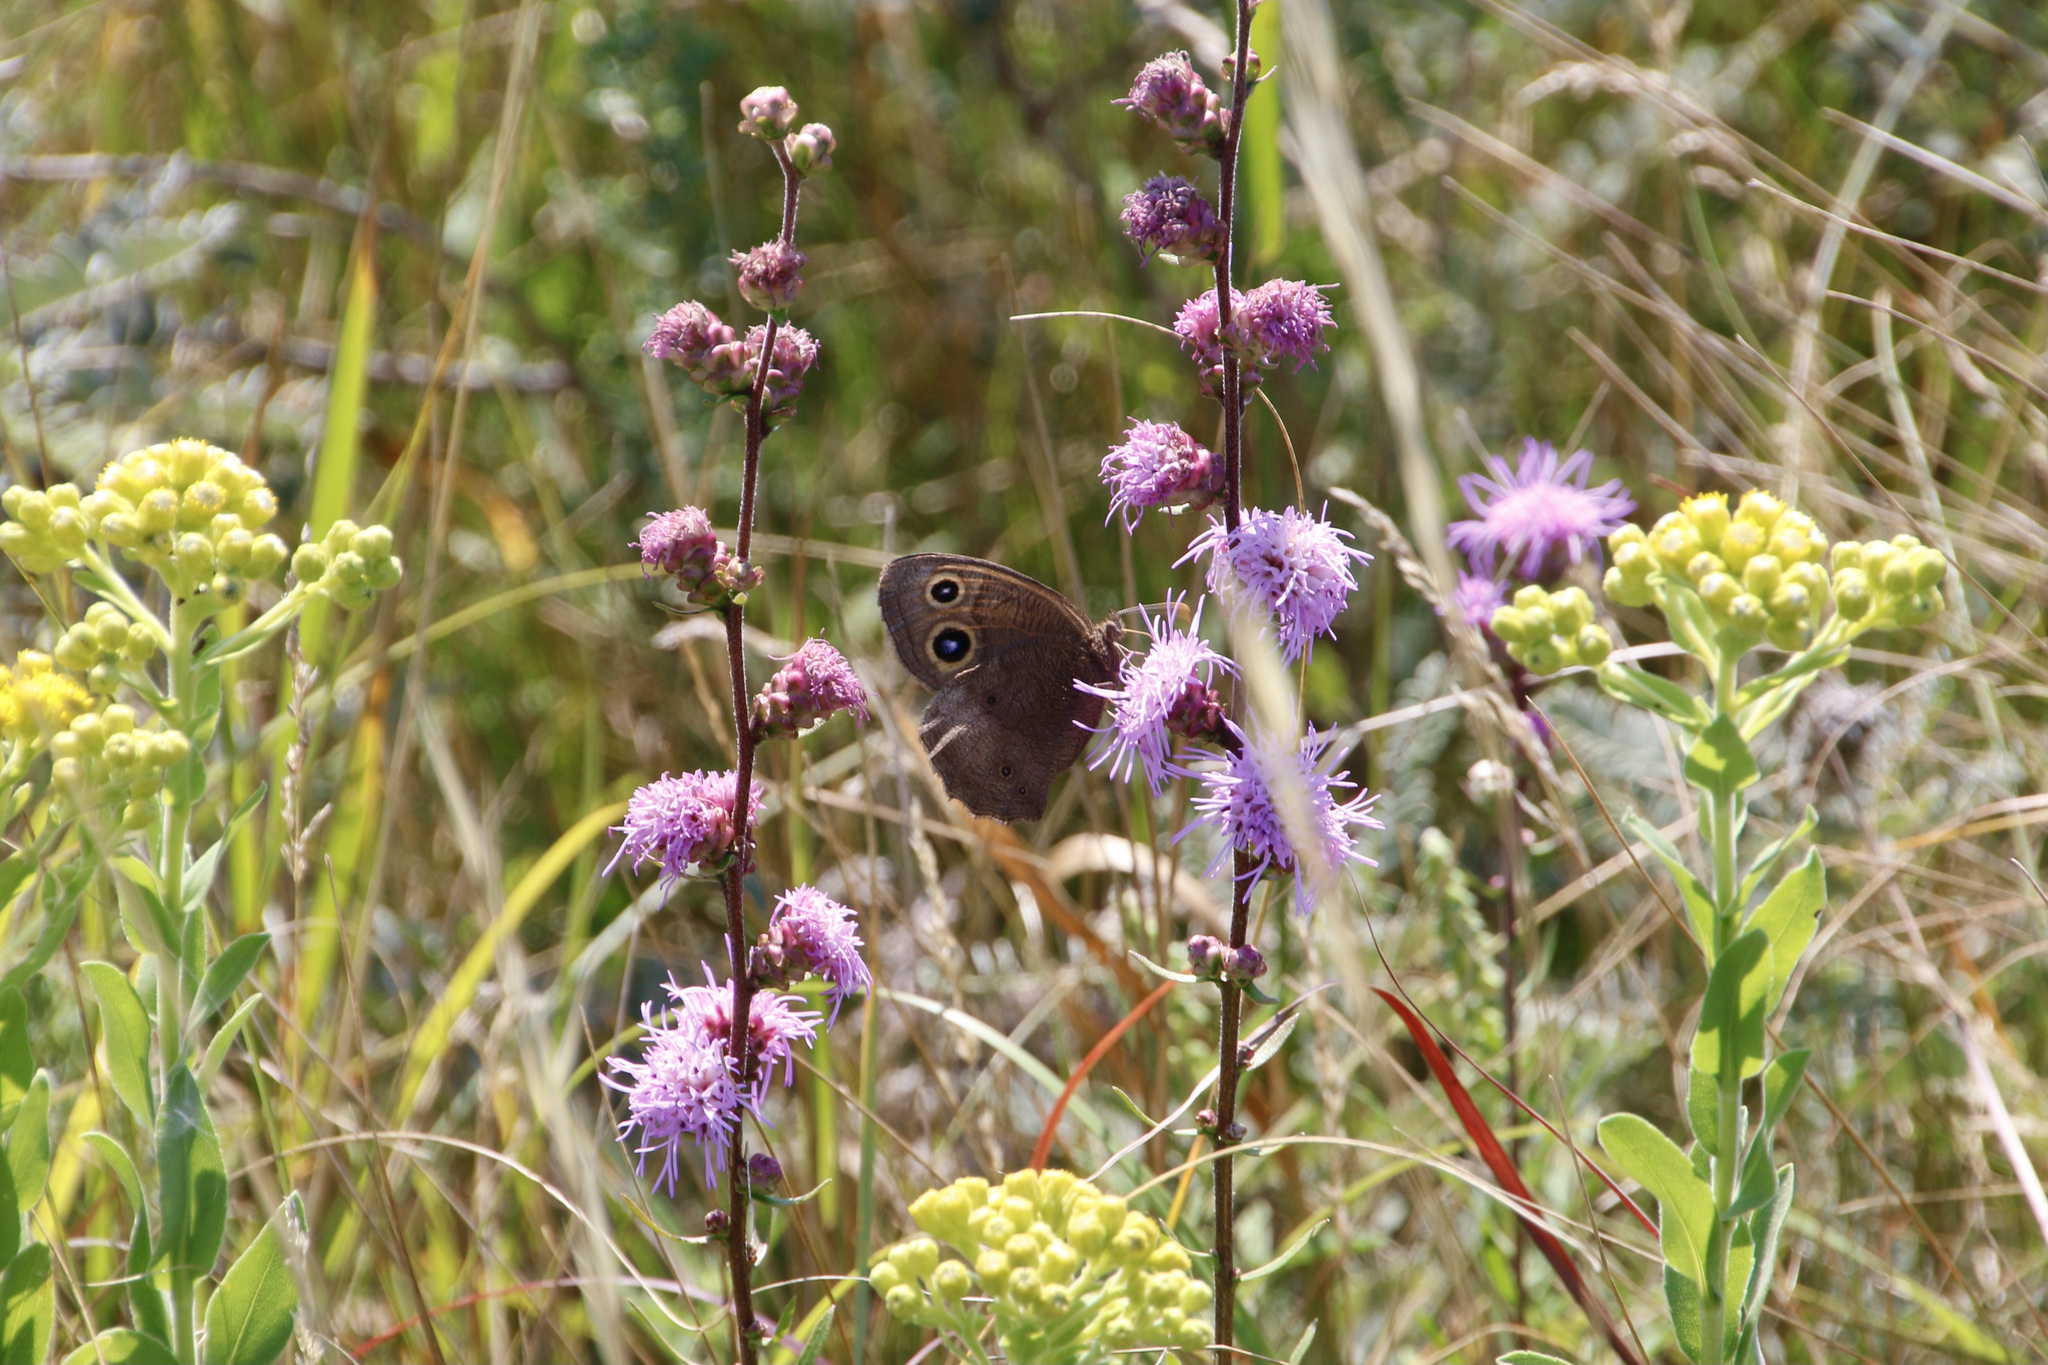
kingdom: Animalia
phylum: Arthropoda
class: Insecta
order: Lepidoptera
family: Nymphalidae
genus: Cercyonis
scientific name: Cercyonis pegala
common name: Common wood-nymph
